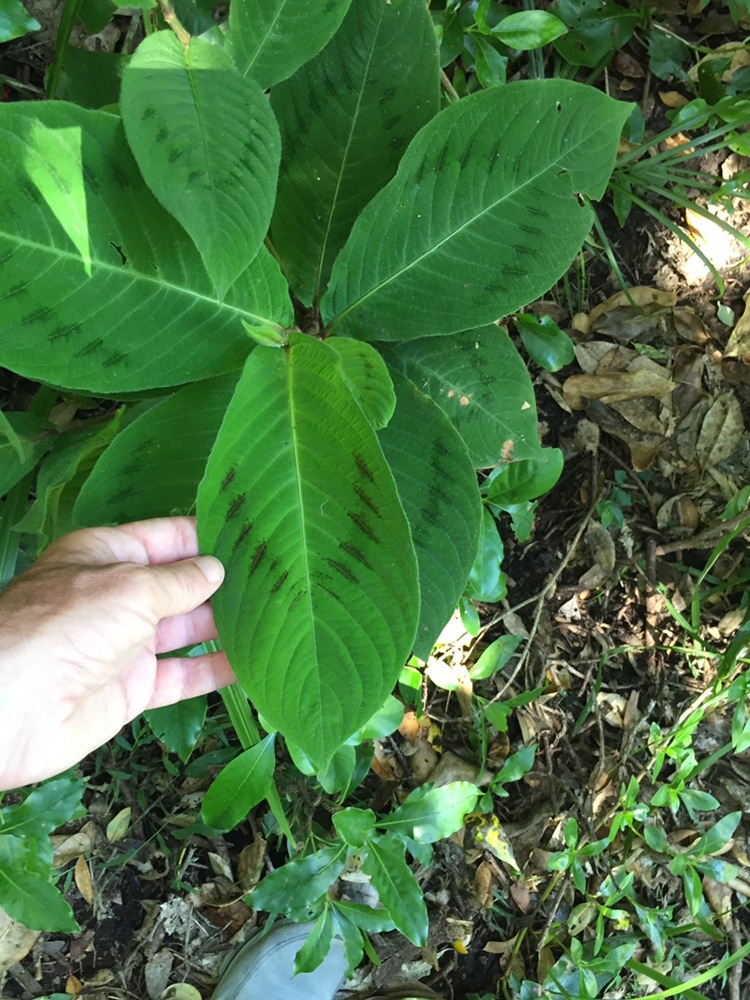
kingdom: Plantae
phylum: Tracheophyta
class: Magnoliopsida
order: Caryophyllales
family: Polygonaceae
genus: Persicaria
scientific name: Persicaria filiformis
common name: Asian jumpseed
